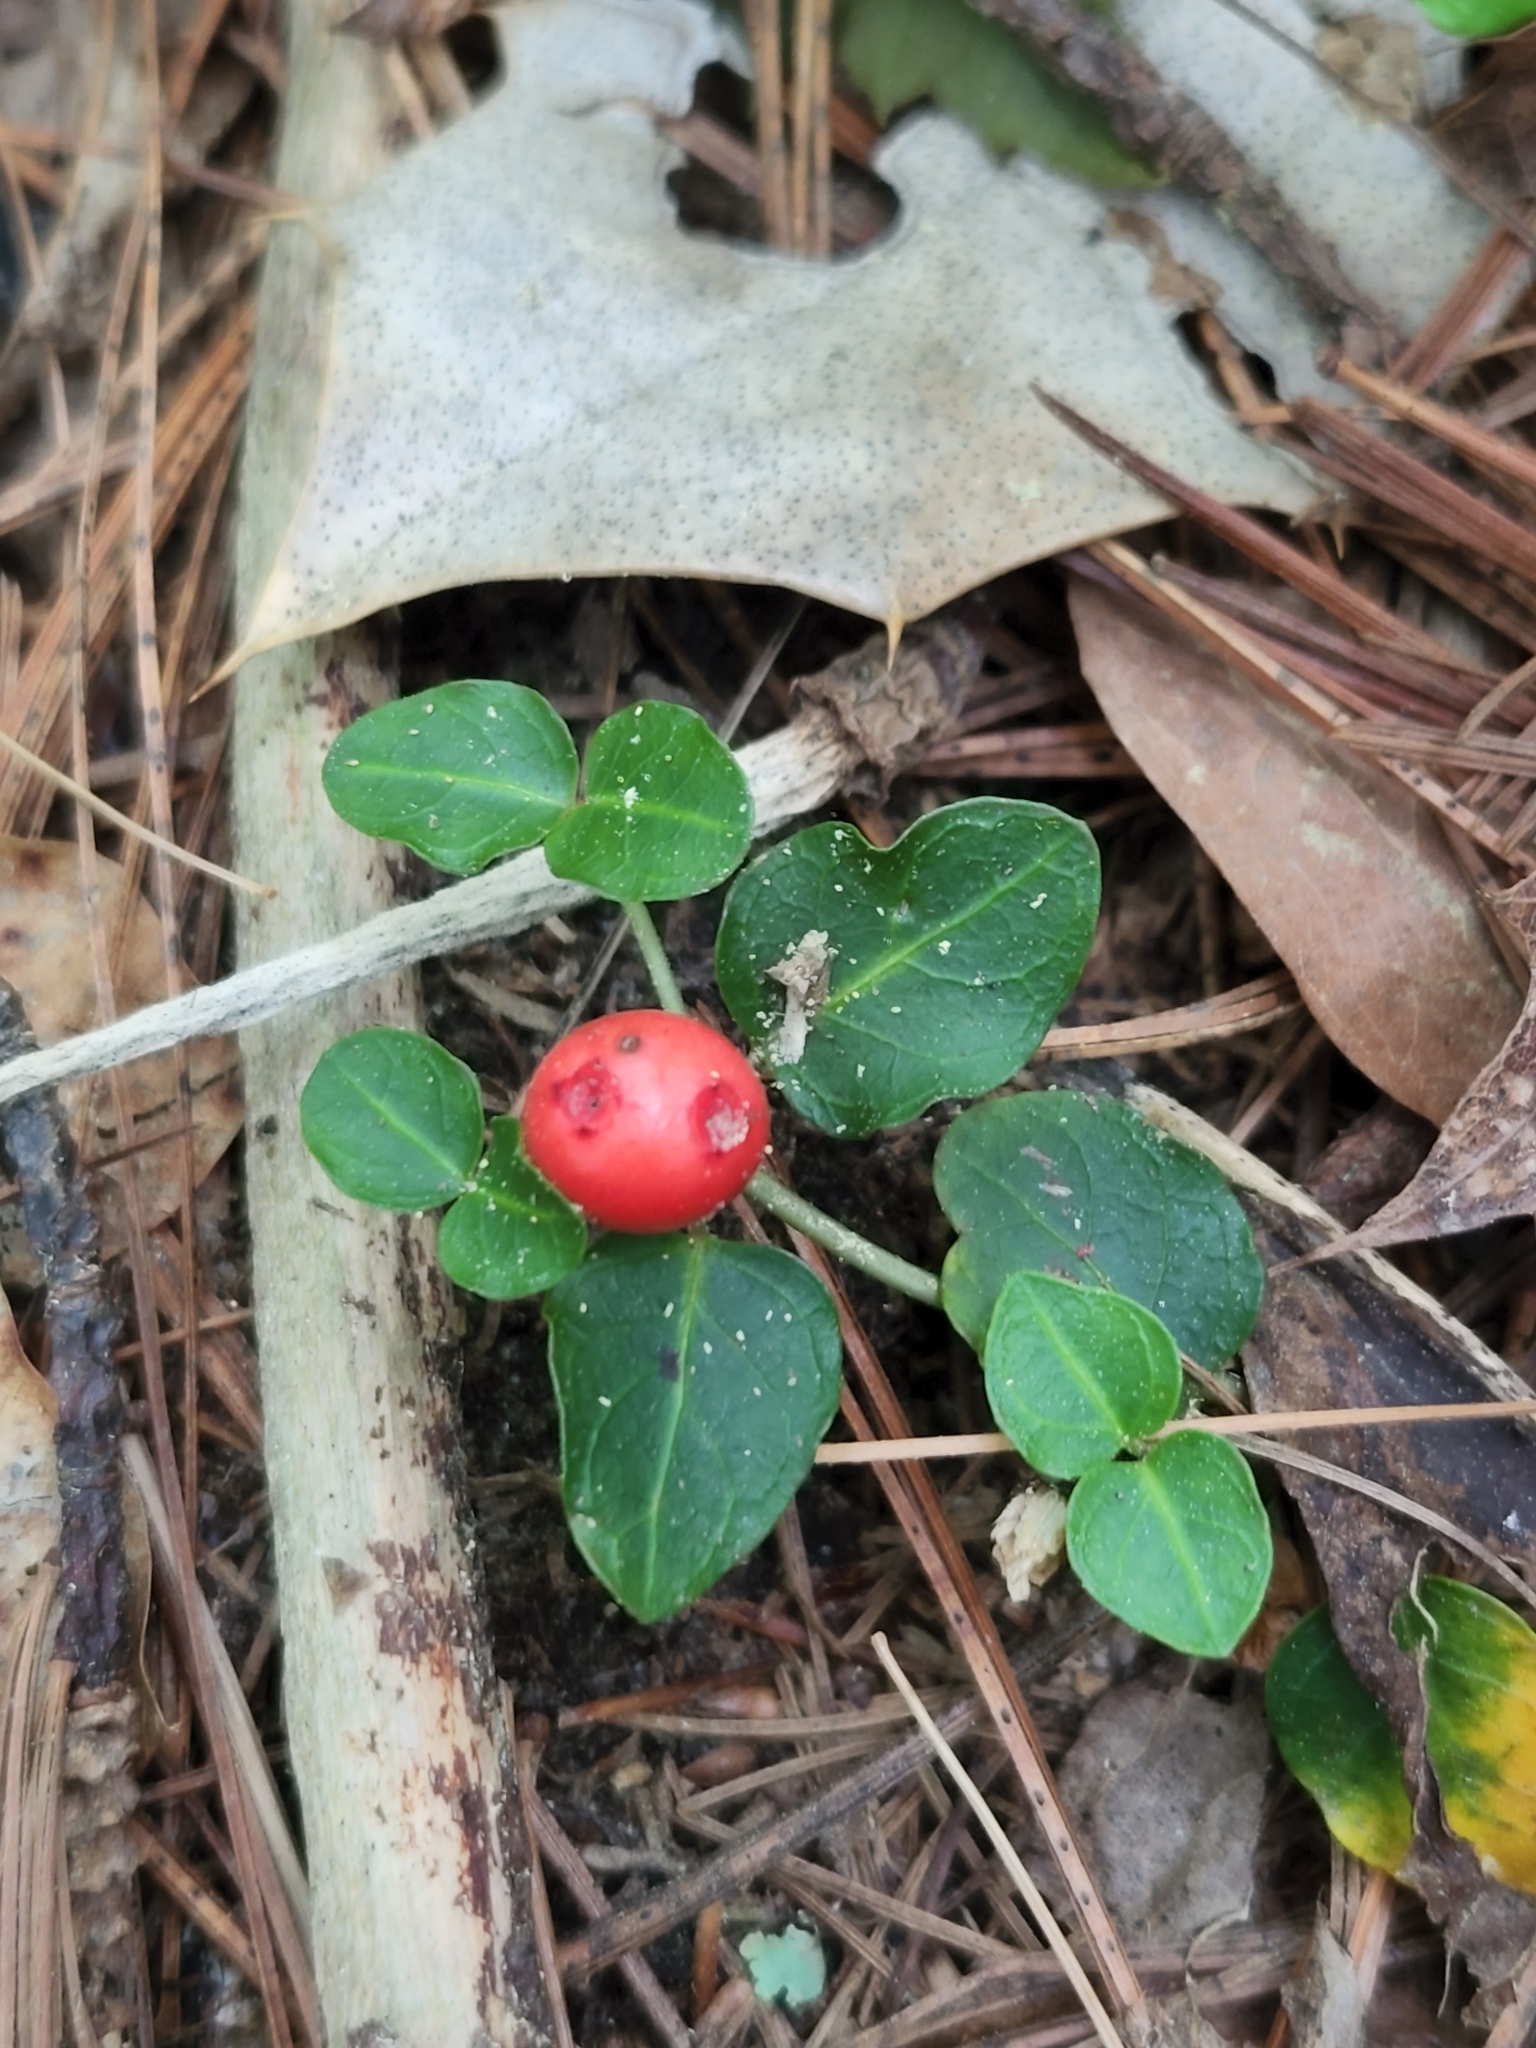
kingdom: Plantae
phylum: Tracheophyta
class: Magnoliopsida
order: Gentianales
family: Rubiaceae
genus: Mitchella
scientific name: Mitchella repens
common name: Partridge-berry
